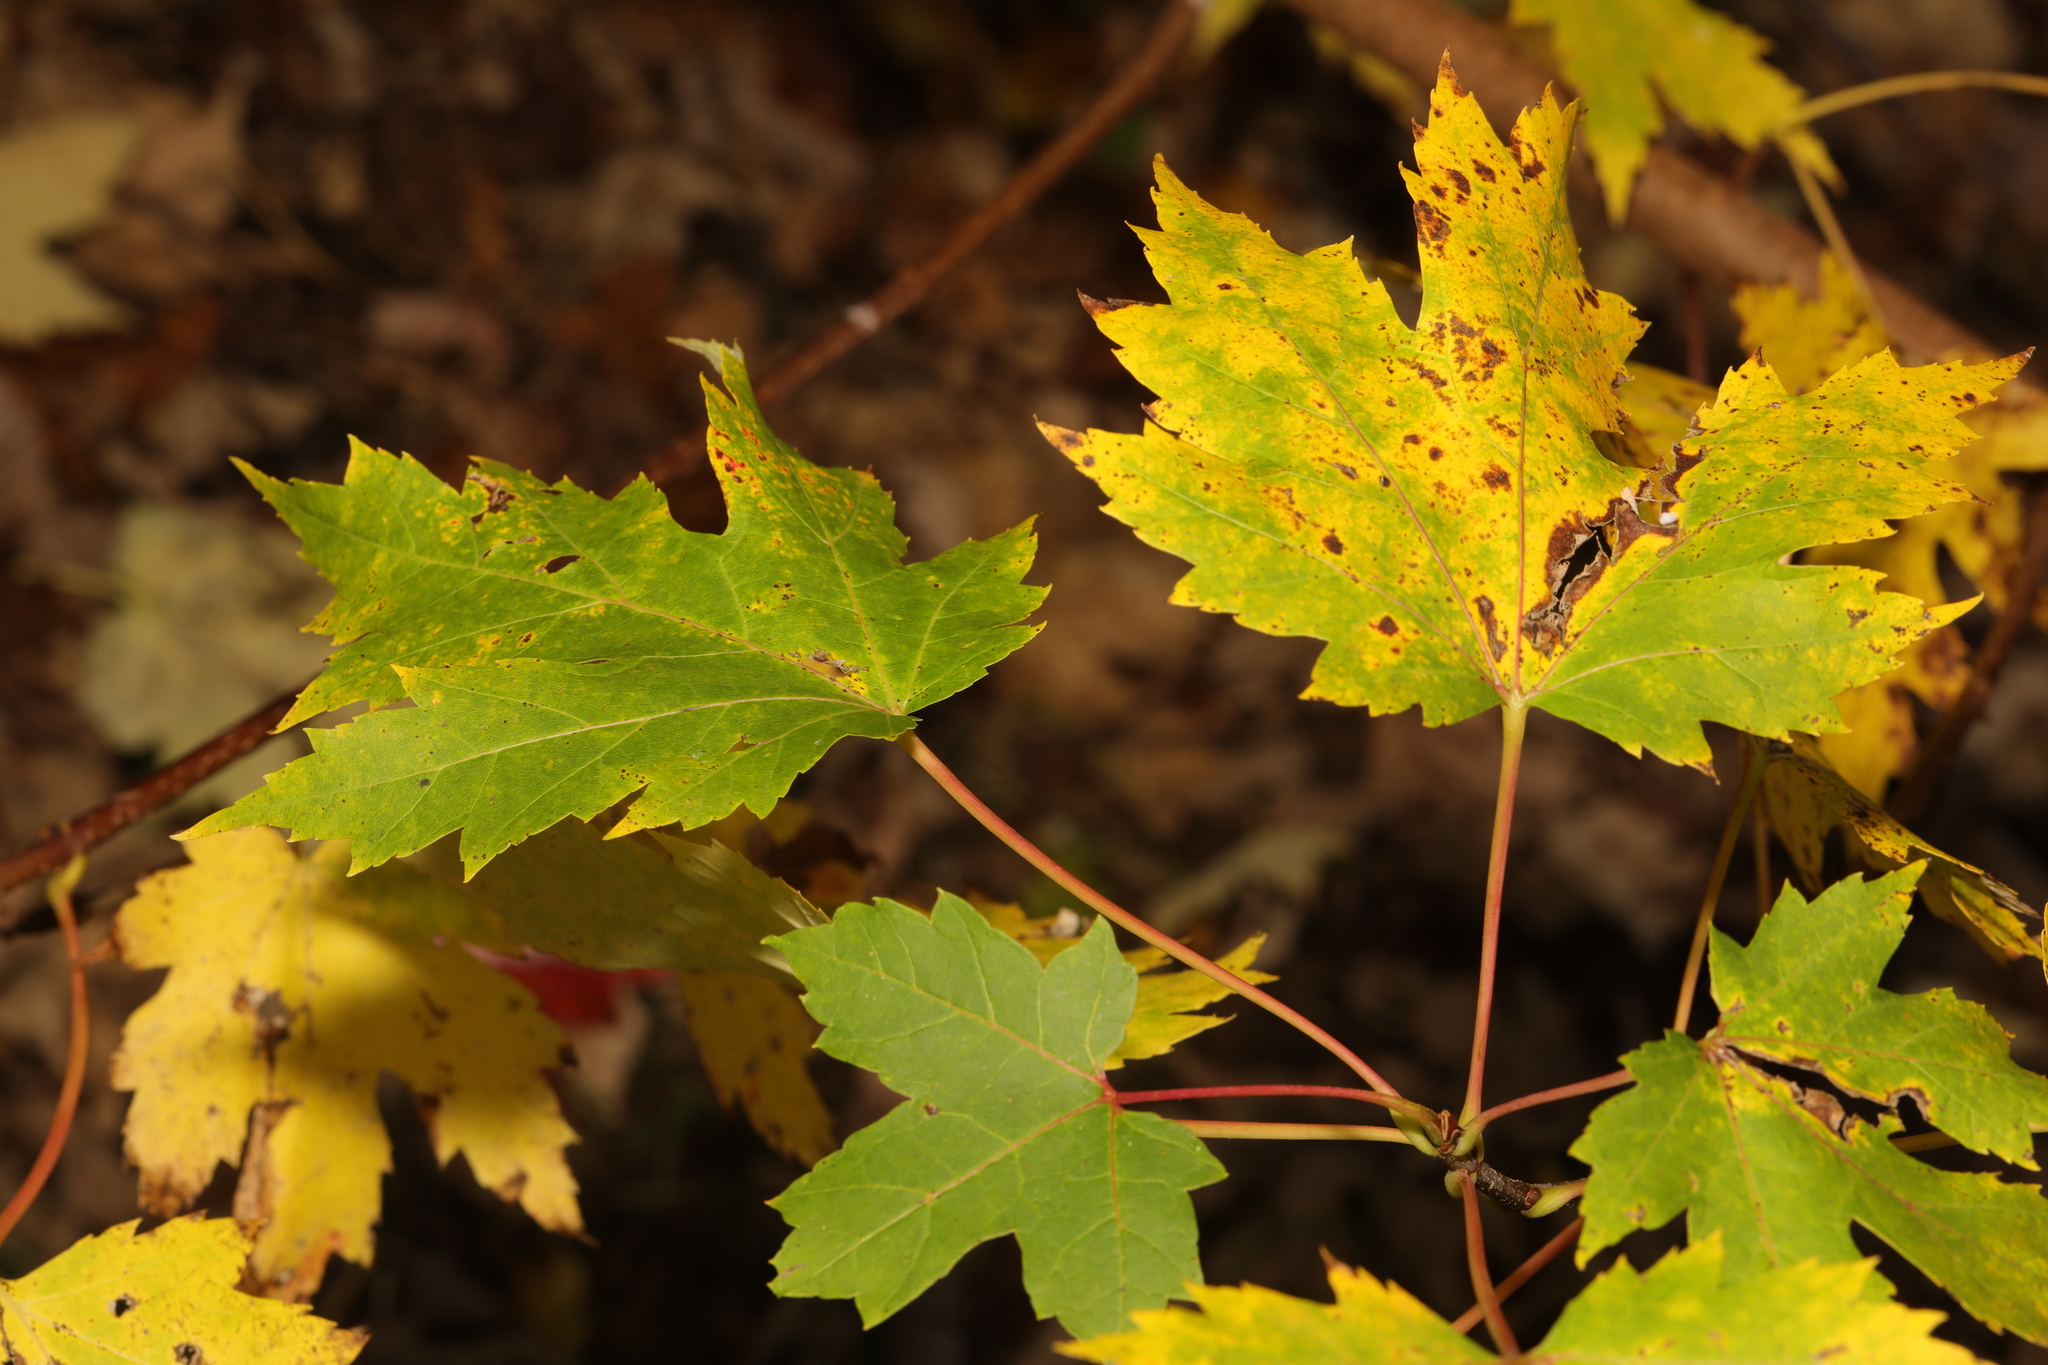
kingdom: Plantae
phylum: Tracheophyta
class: Magnoliopsida
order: Sapindales
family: Sapindaceae
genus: Acer
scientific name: Acer freemanii
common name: Freeman maple
